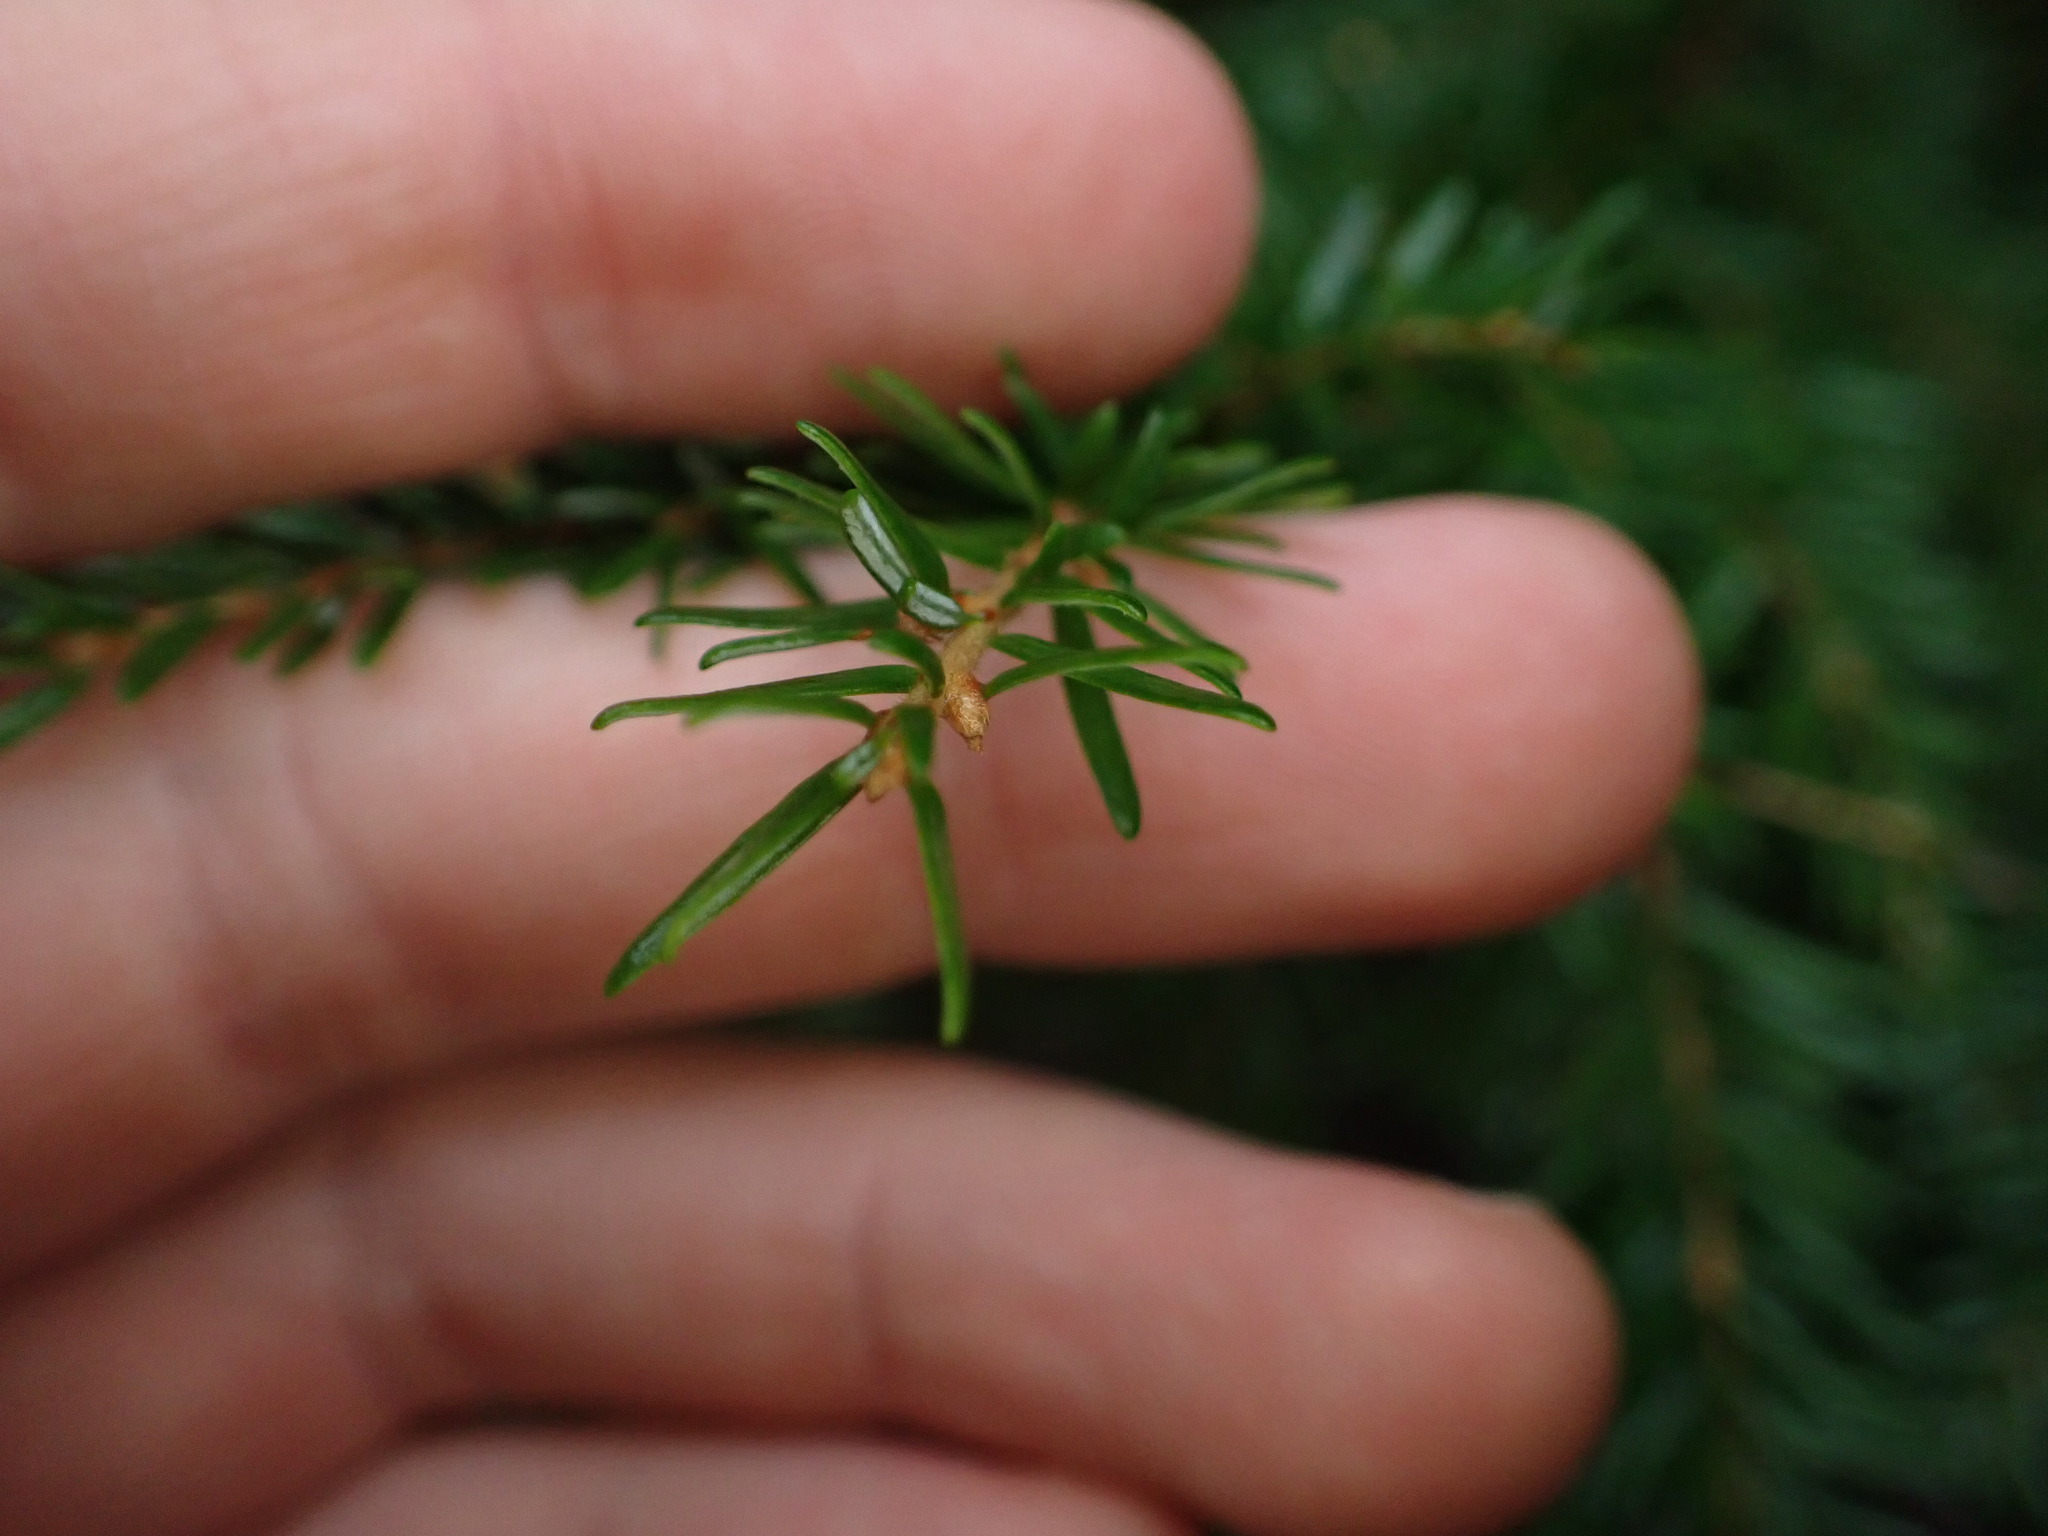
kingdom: Plantae
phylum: Tracheophyta
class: Pinopsida
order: Pinales
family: Pinaceae
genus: Tsuga
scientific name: Tsuga heterophylla
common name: Western hemlock
